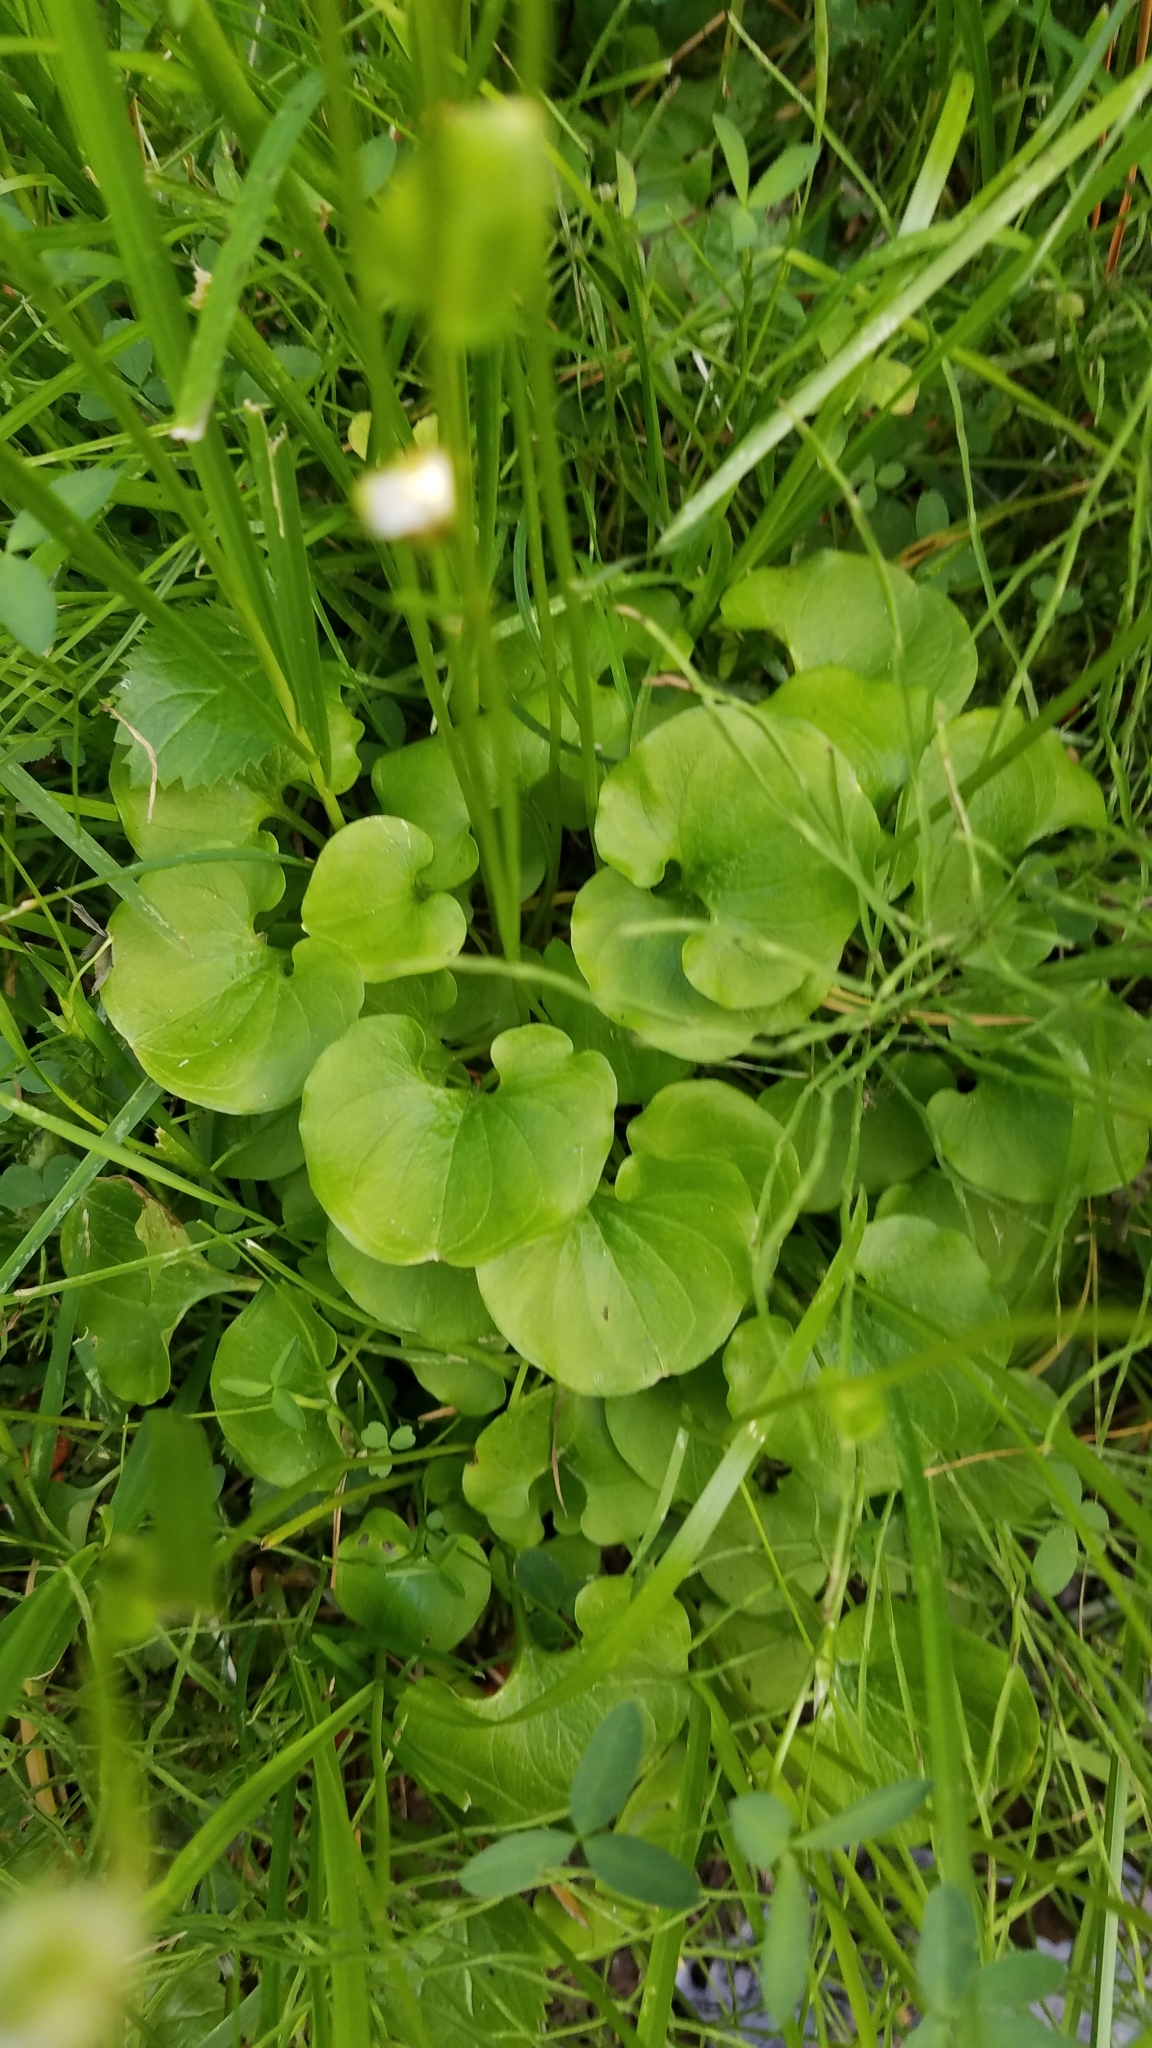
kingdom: Plantae
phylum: Tracheophyta
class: Magnoliopsida
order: Celastrales
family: Parnassiaceae
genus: Parnassia
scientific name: Parnassia fimbriata
